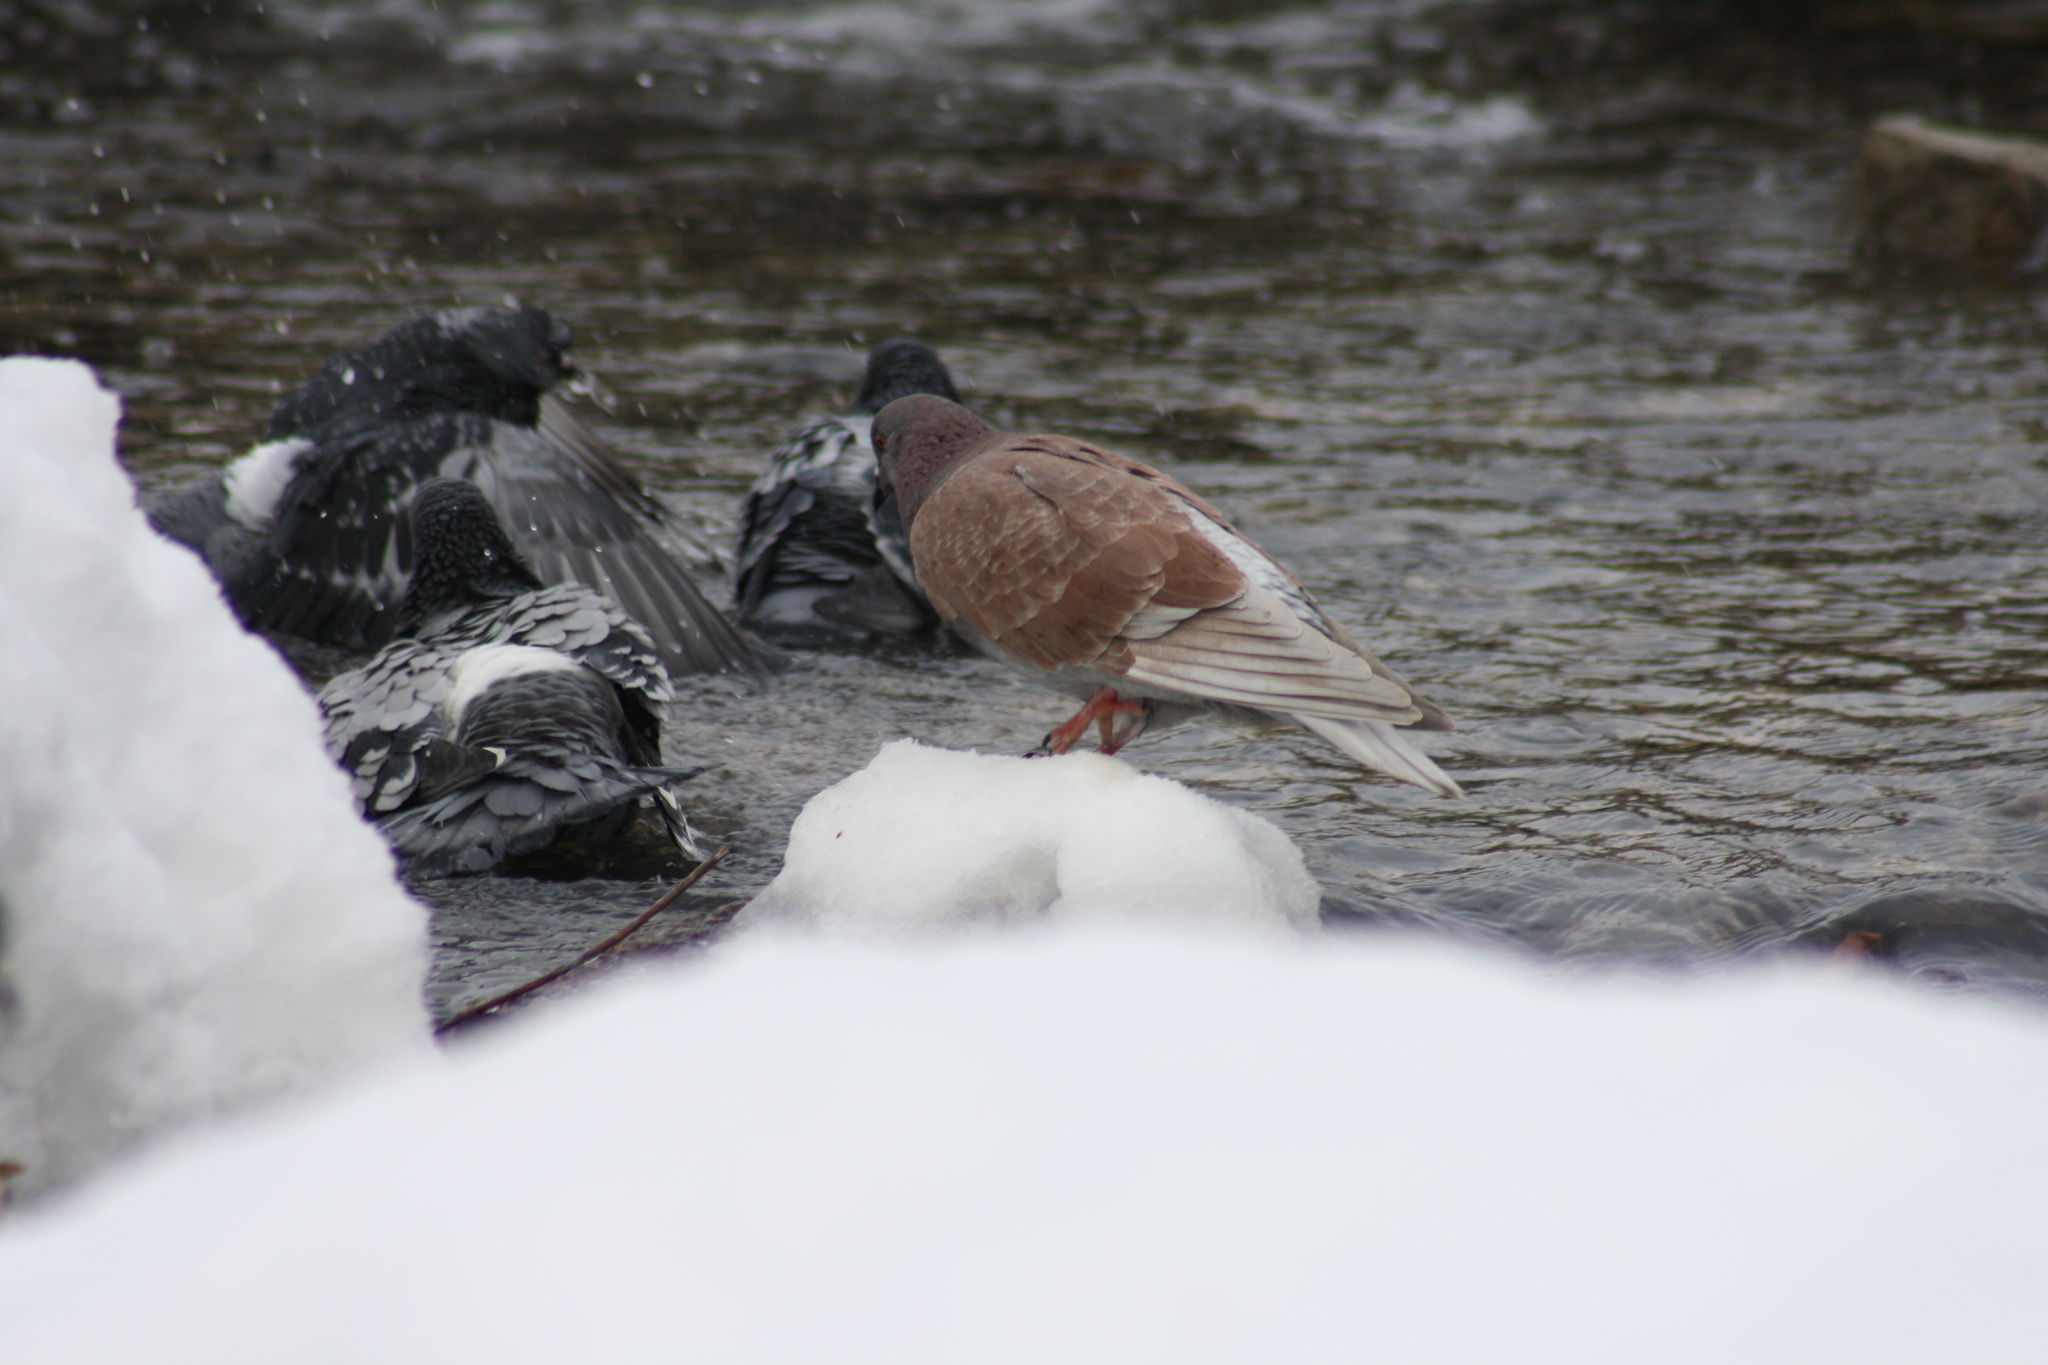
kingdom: Animalia
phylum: Chordata
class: Aves
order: Columbiformes
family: Columbidae
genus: Columba
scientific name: Columba livia
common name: Rock pigeon
